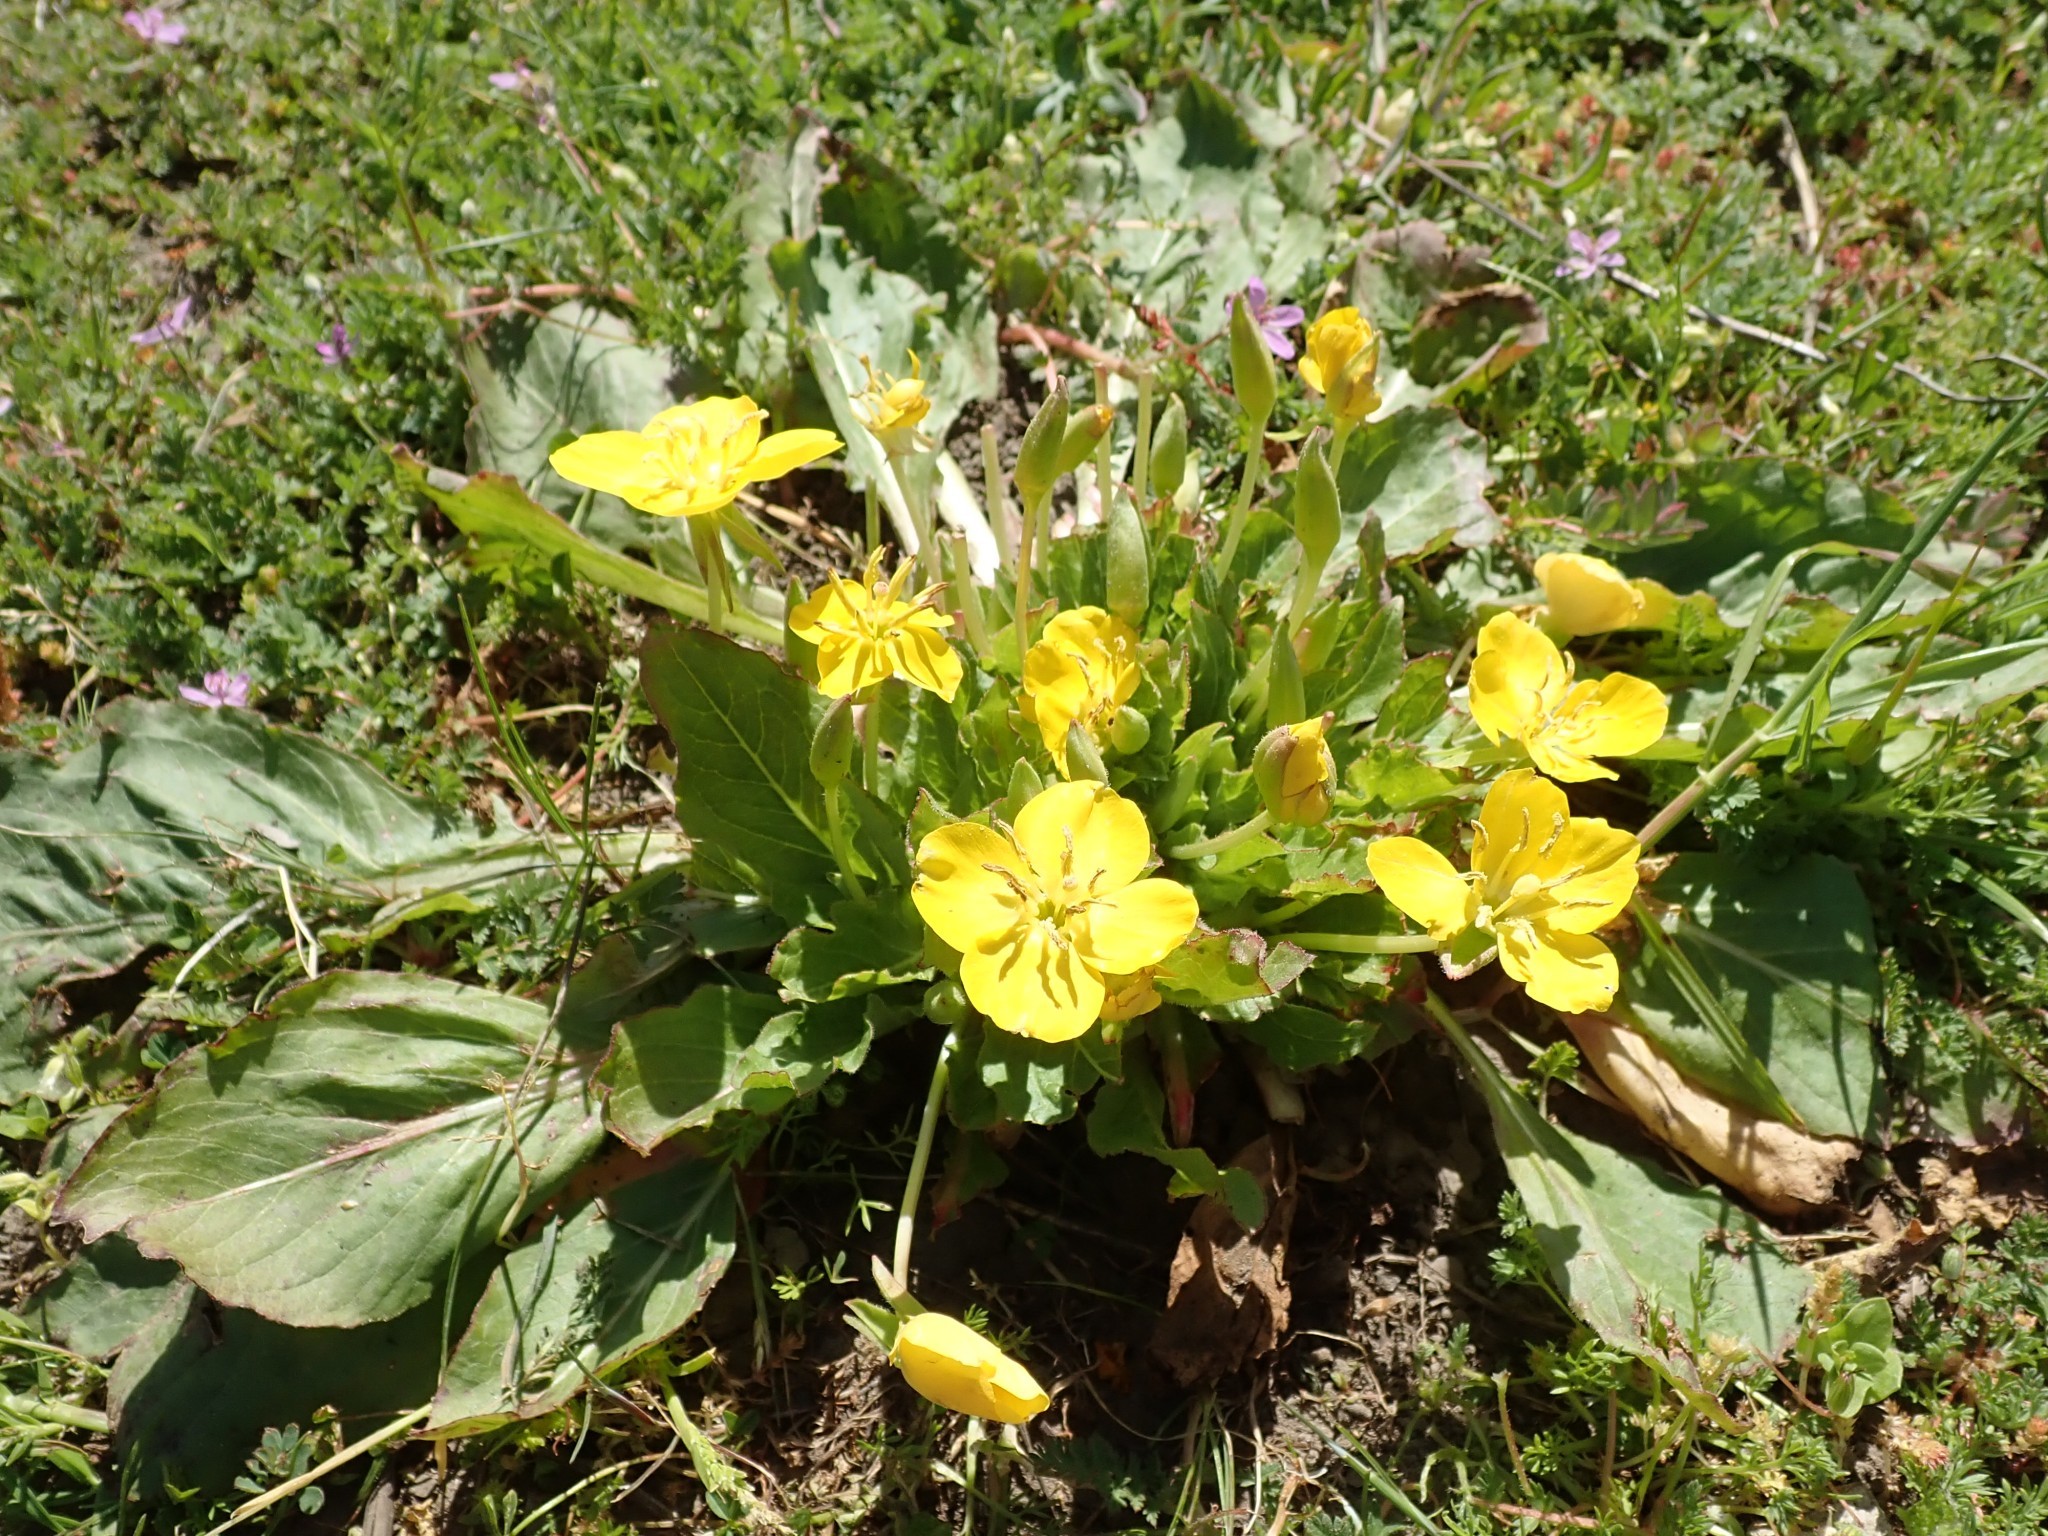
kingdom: Plantae
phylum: Tracheophyta
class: Magnoliopsida
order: Myrtales
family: Onagraceae
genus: Taraxia
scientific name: Taraxia ovata
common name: Goldeneggs
